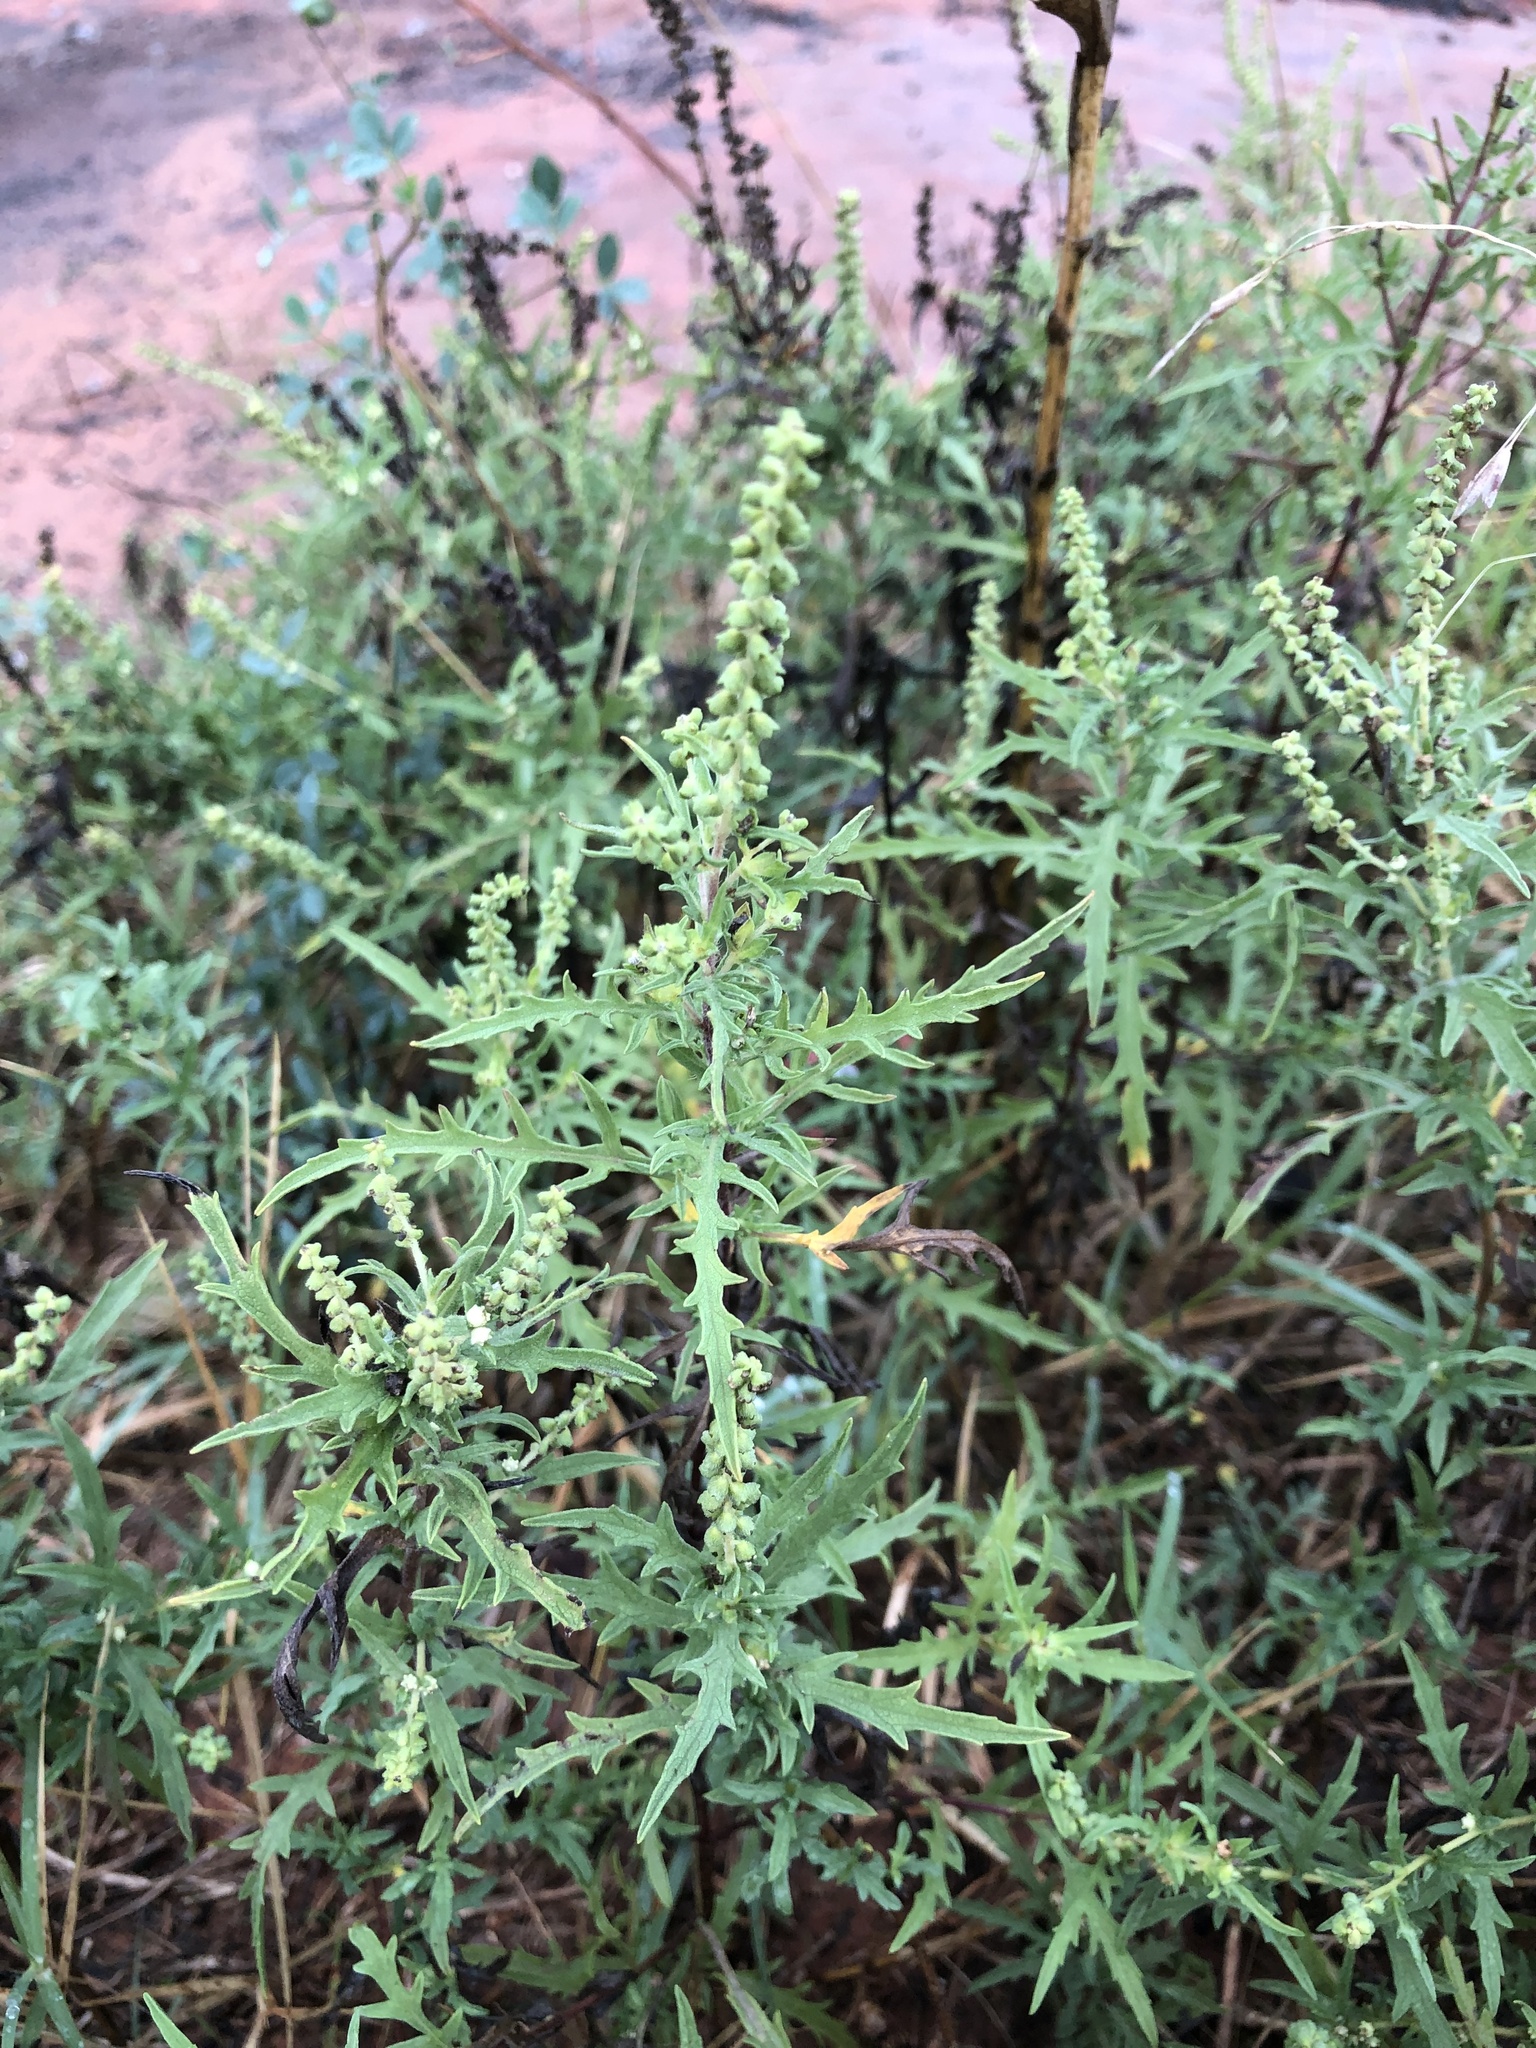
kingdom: Plantae
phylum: Tracheophyta
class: Magnoliopsida
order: Asterales
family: Asteraceae
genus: Ambrosia
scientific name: Ambrosia psilostachya
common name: Perennial ragweed
